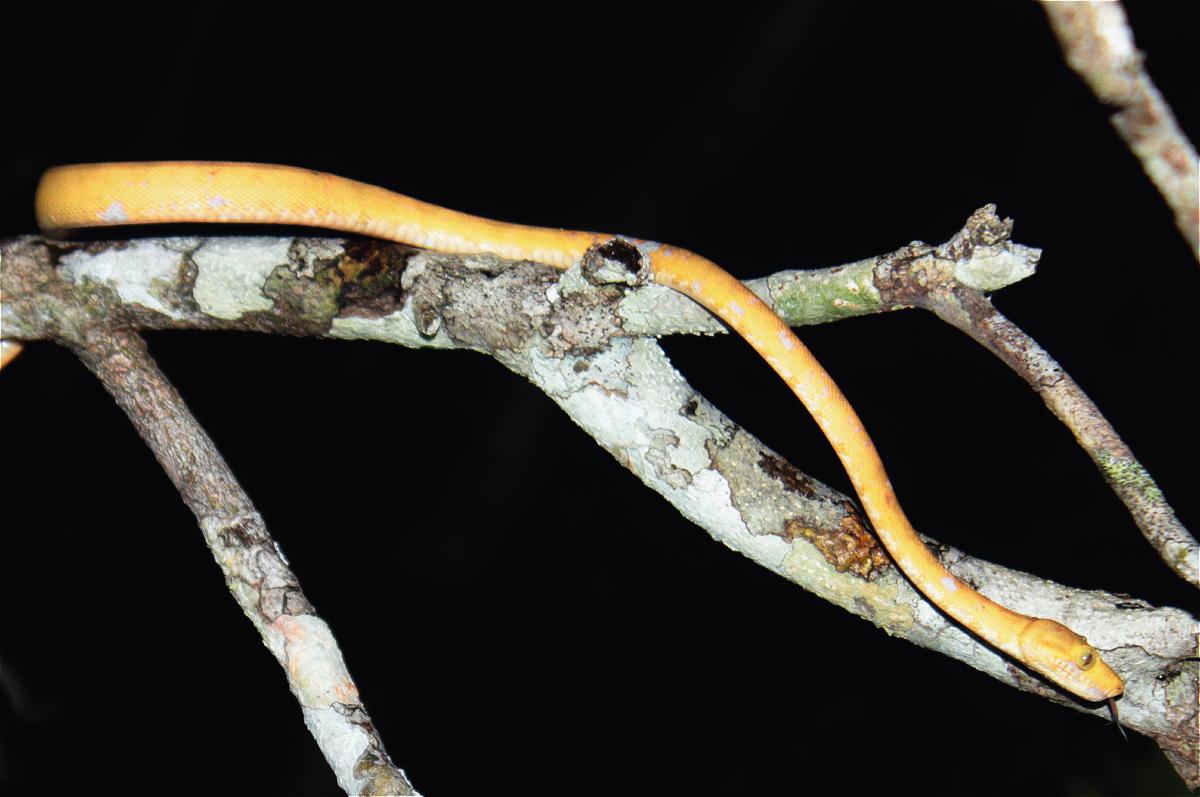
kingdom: Animalia
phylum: Chordata
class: Squamata
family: Boidae
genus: Corallus
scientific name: Corallus hortulana
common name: Garden tree boa
